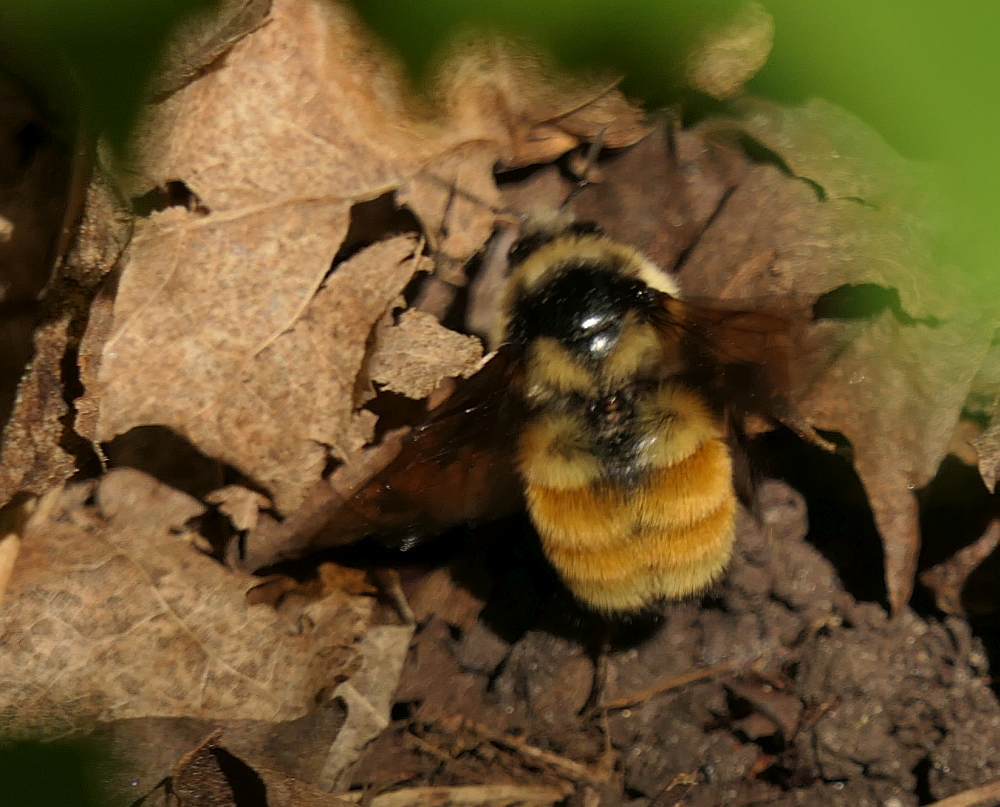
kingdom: Animalia
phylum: Arthropoda
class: Insecta
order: Hymenoptera
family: Apidae
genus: Bombus
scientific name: Bombus ternarius
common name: Tri-colored bumble bee
